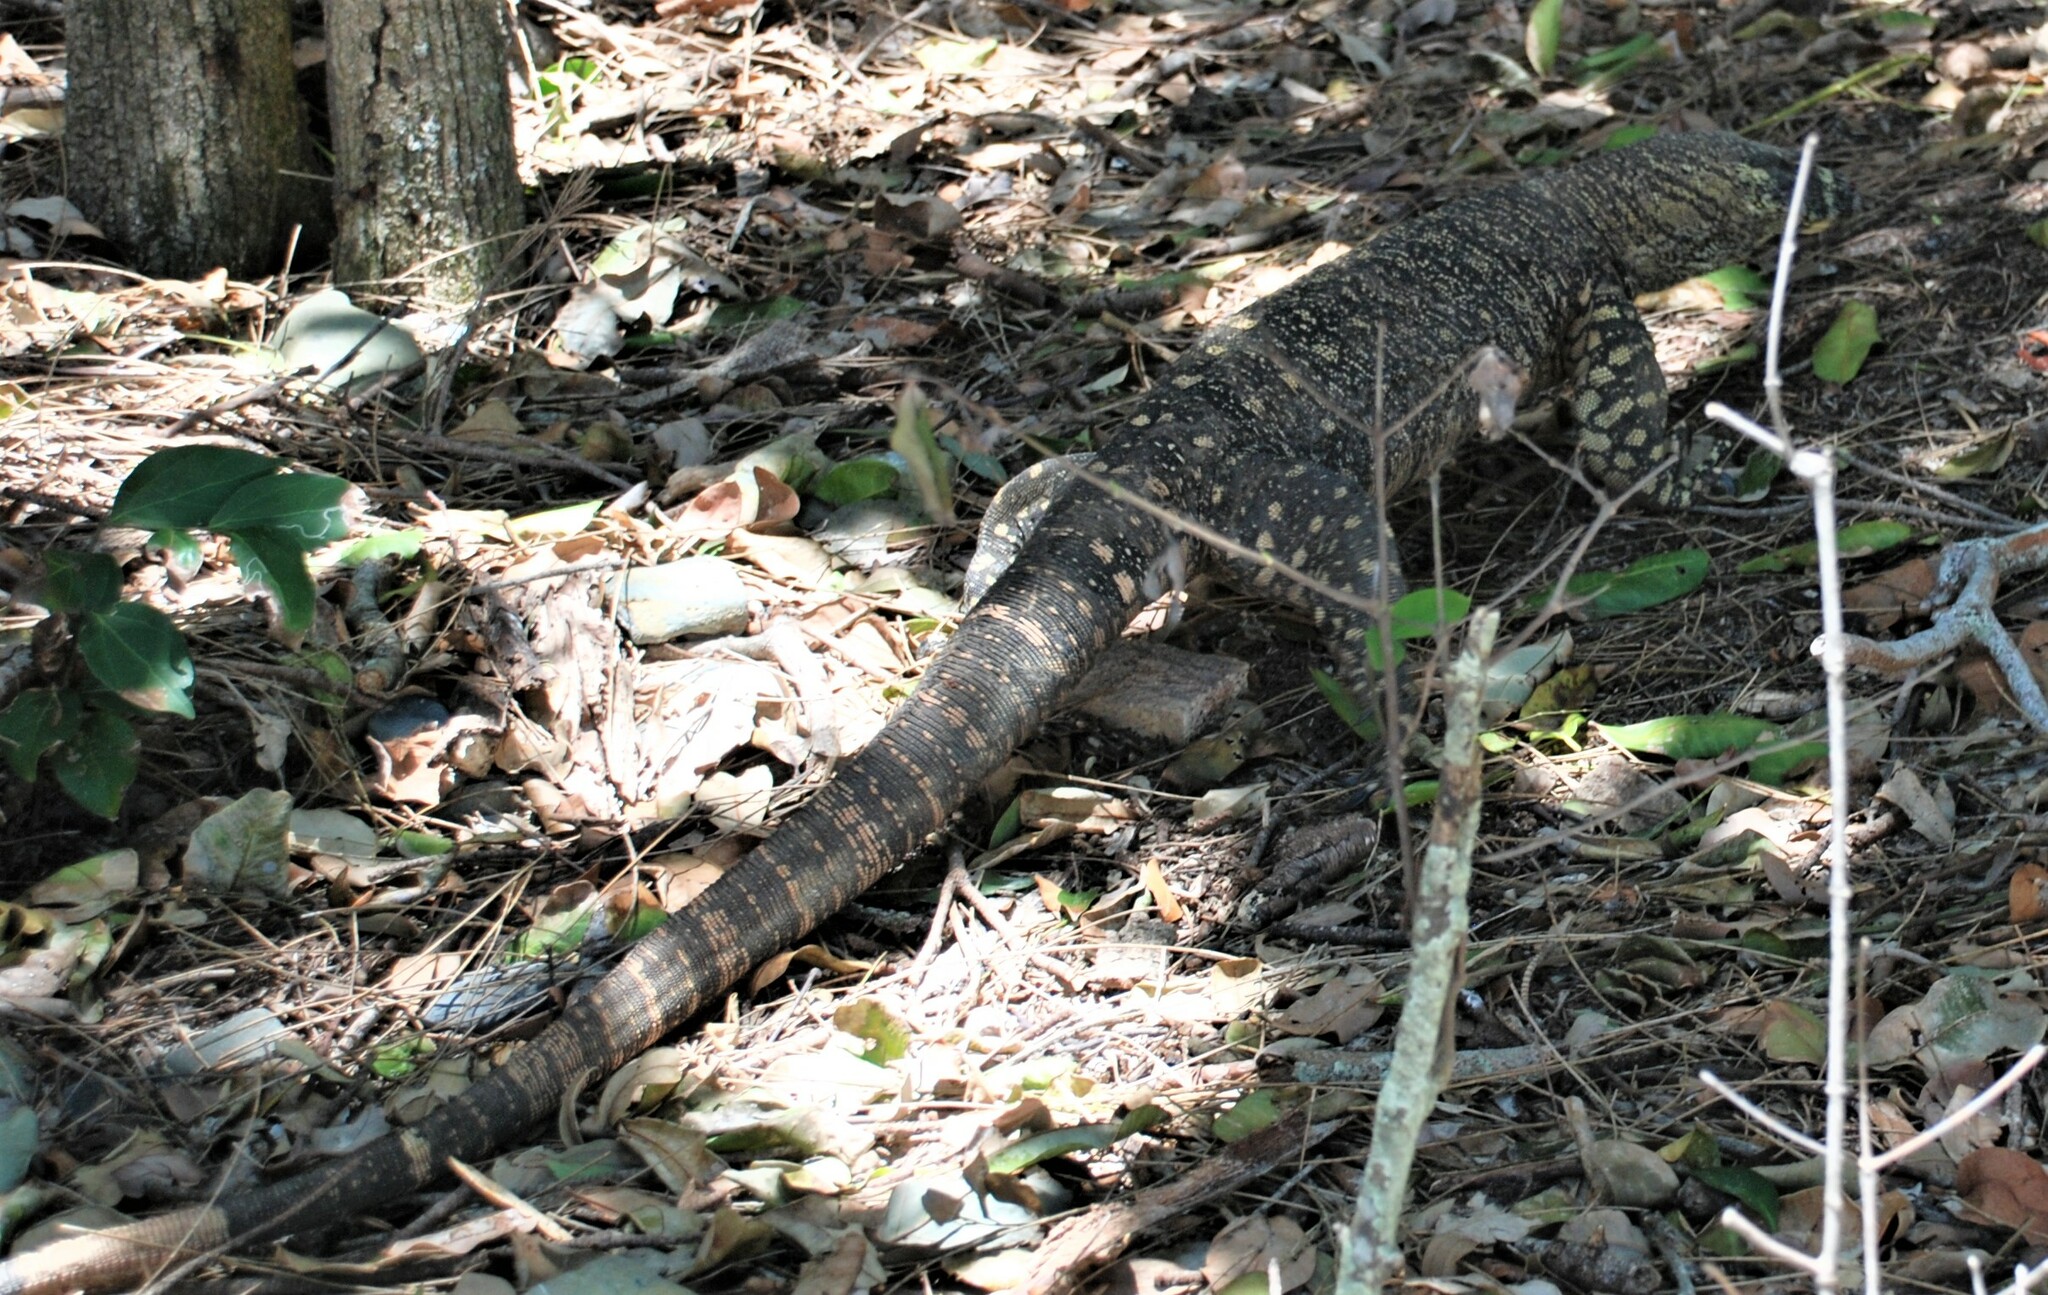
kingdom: Animalia
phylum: Chordata
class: Squamata
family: Varanidae
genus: Varanus
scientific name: Varanus varius
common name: Lace monitor
